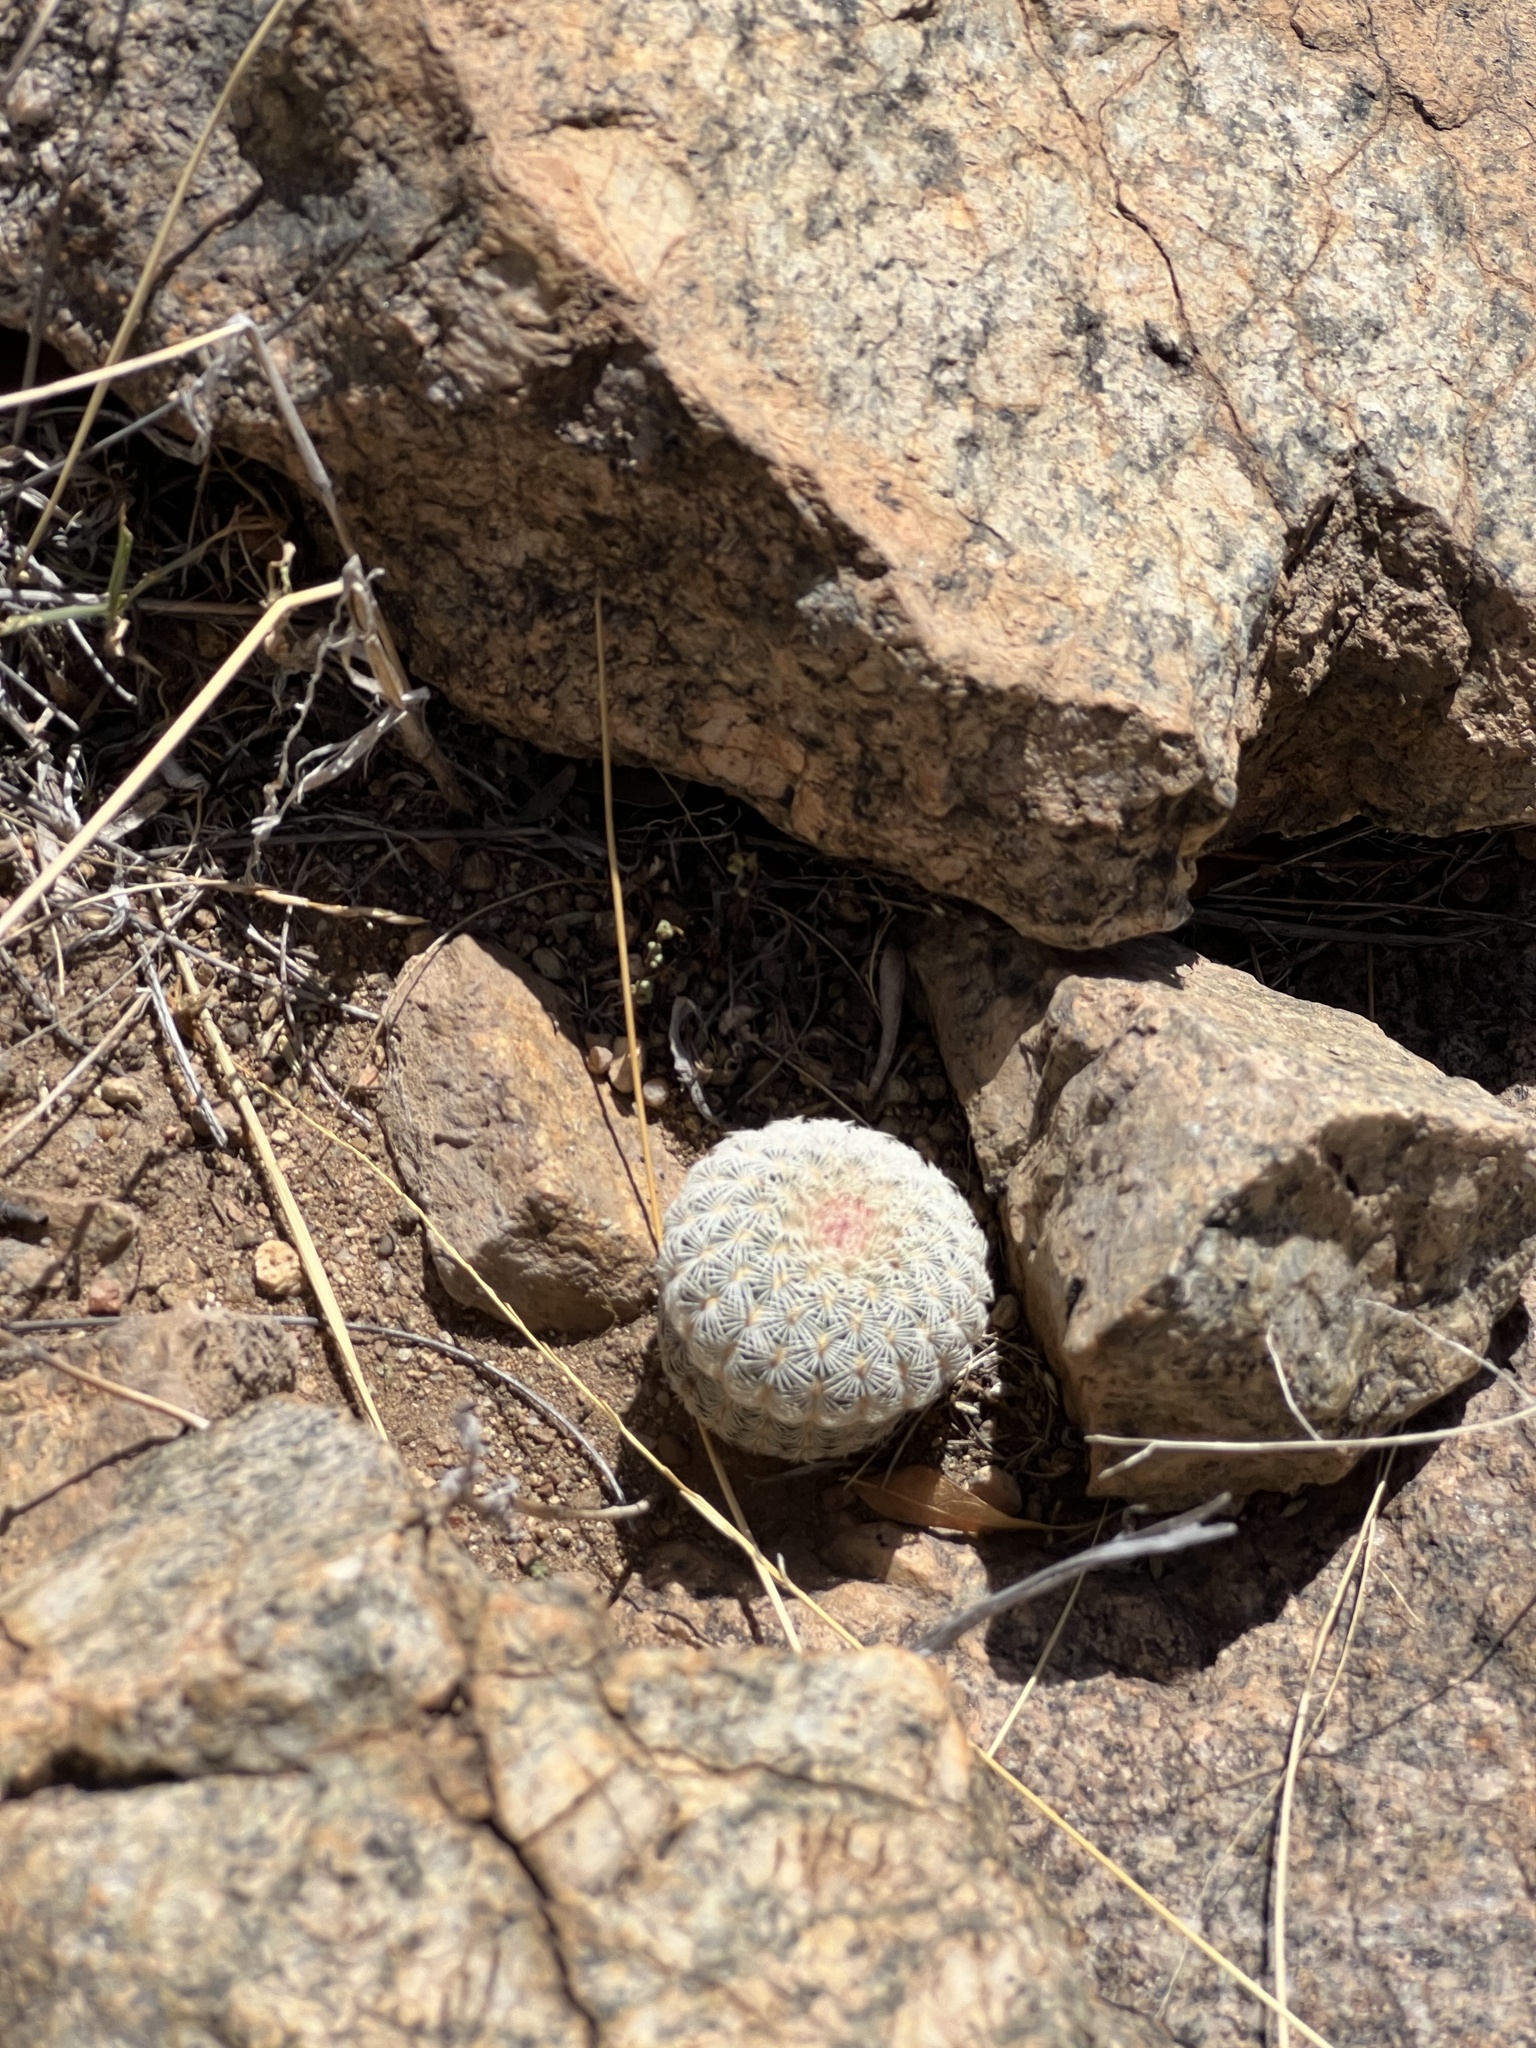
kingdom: Plantae
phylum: Tracheophyta
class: Magnoliopsida
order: Caryophyllales
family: Cactaceae
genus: Echinocereus
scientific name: Echinocereus rigidissimus
